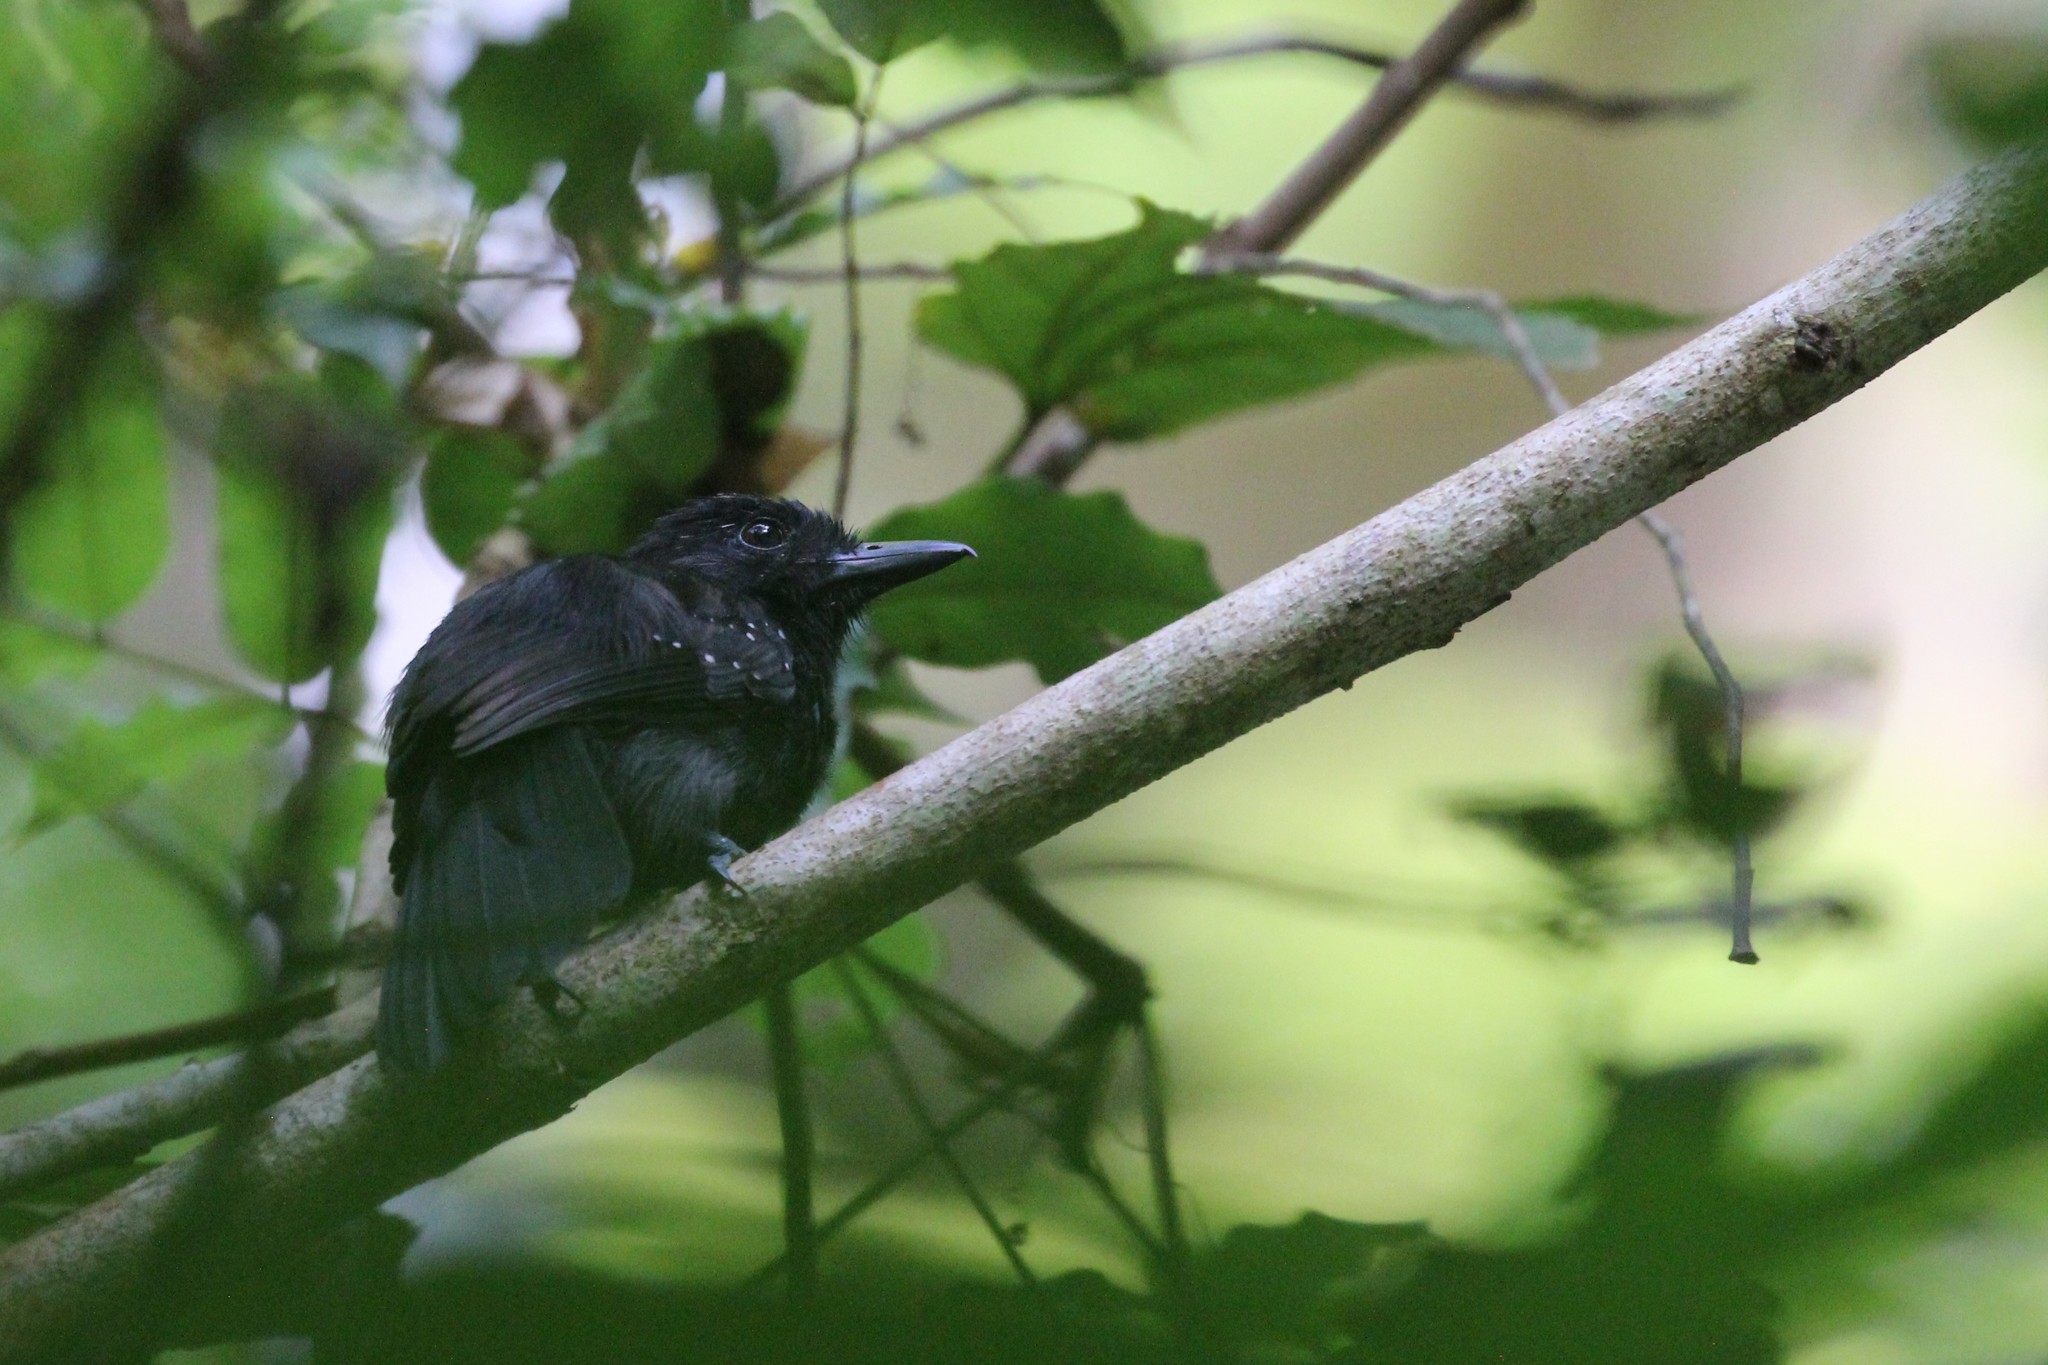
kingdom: Animalia
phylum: Chordata
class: Aves
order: Passeriformes
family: Thamnophilidae
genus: Thamnophilus
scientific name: Thamnophilus bridgesi
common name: Black-hooded antshrike
